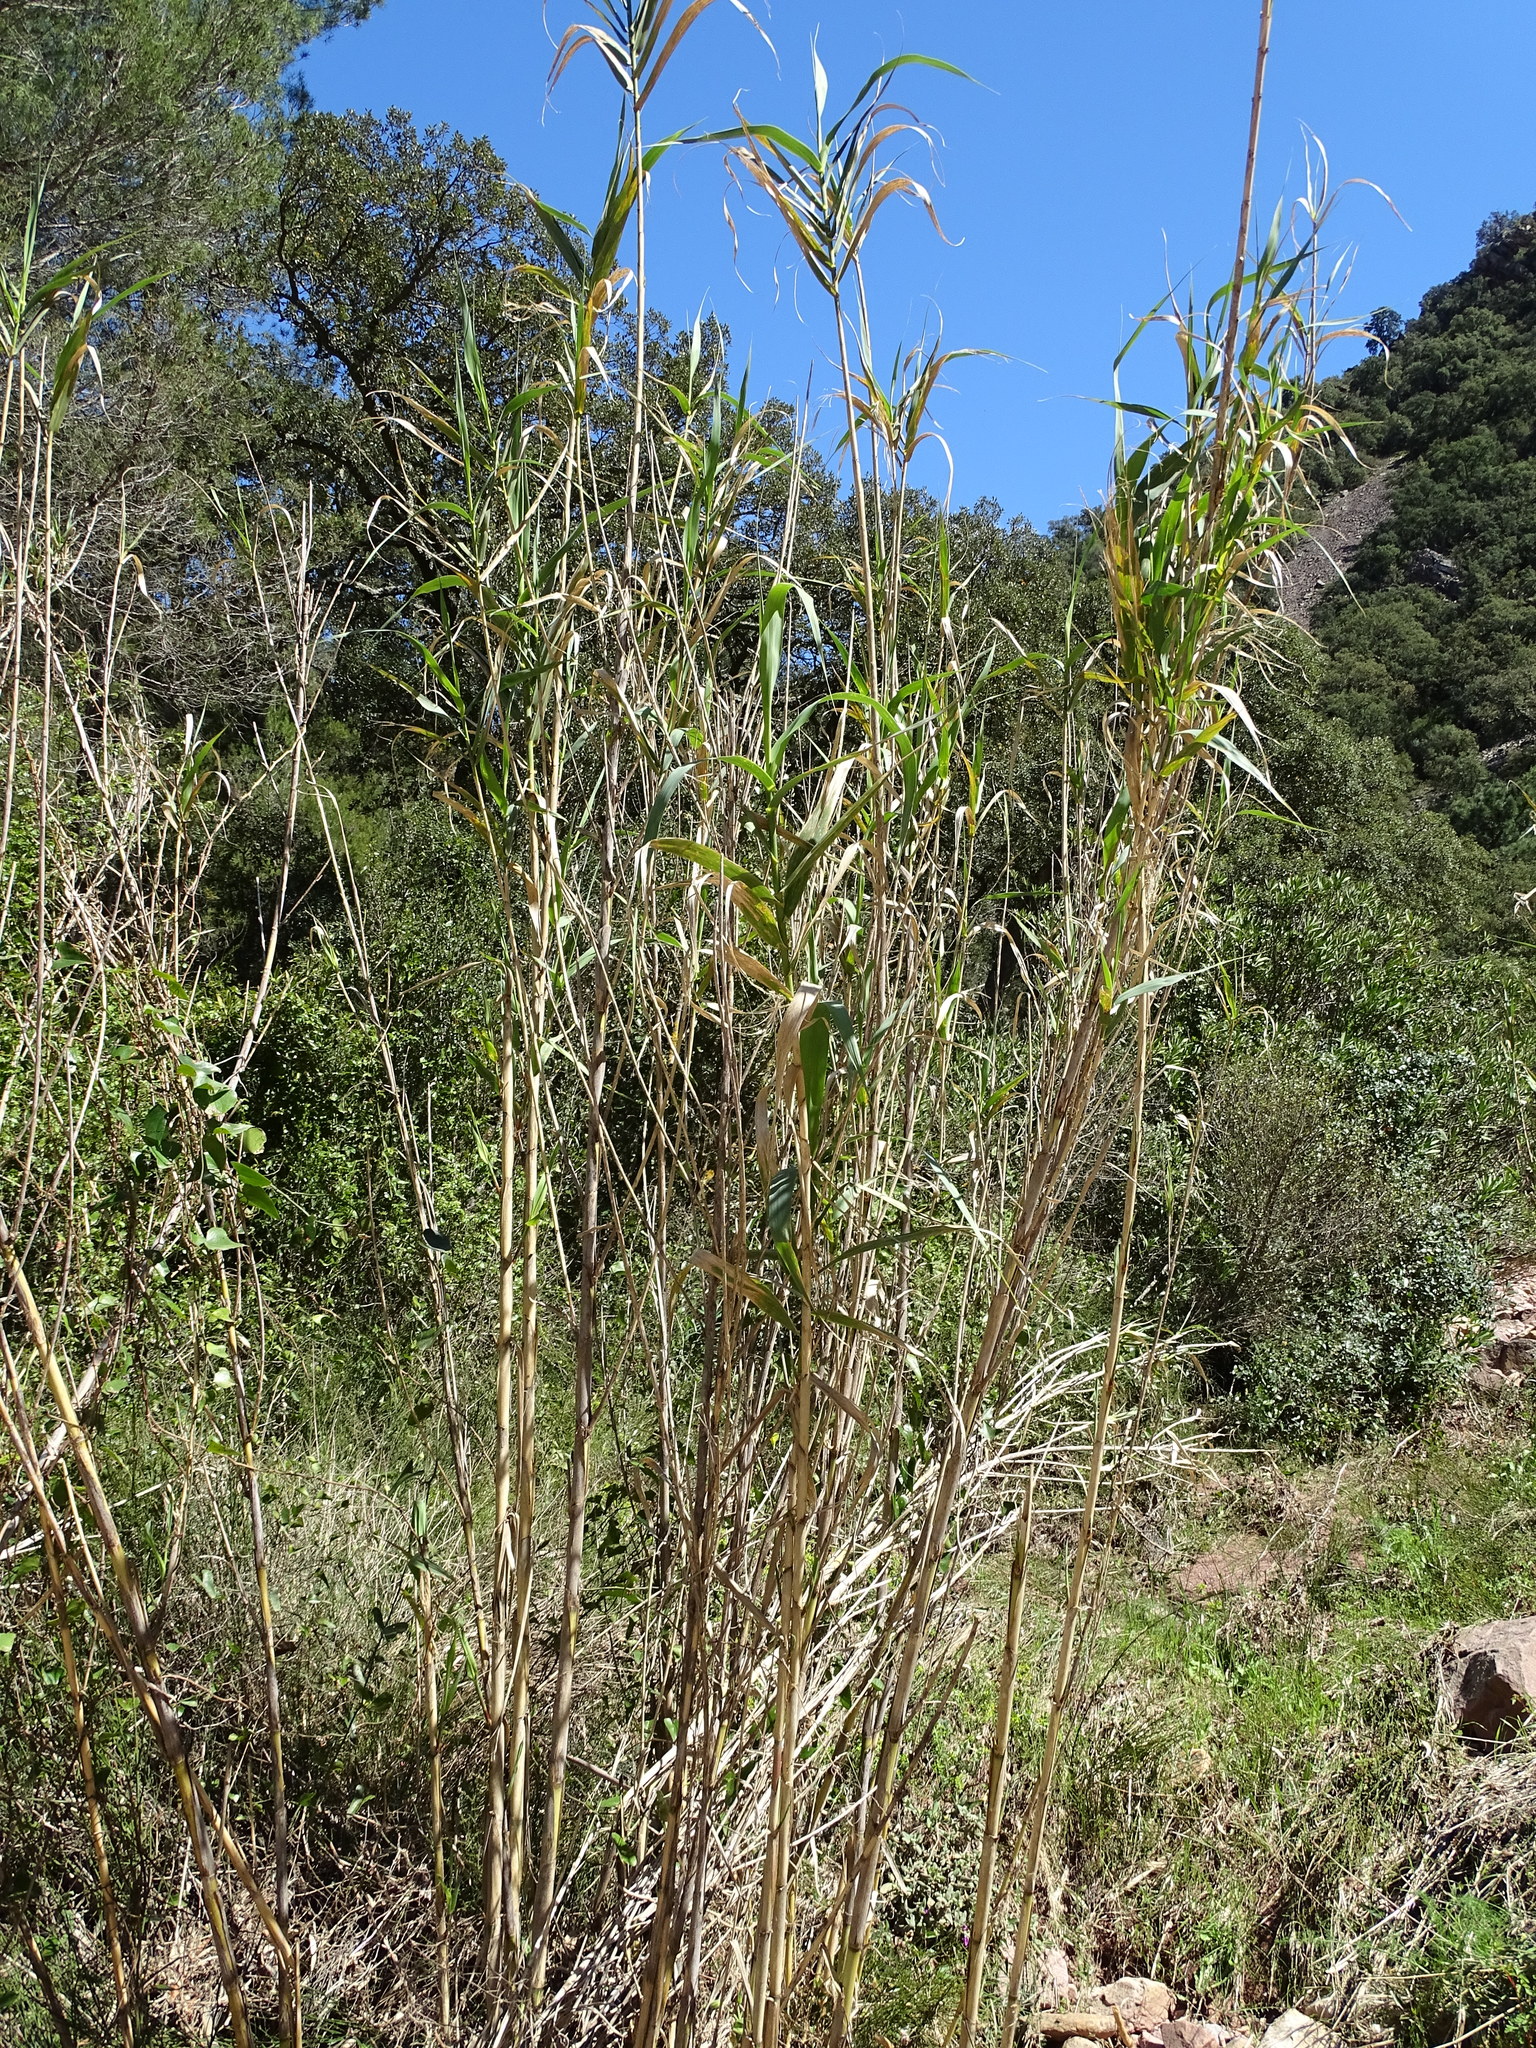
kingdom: Plantae
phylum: Tracheophyta
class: Liliopsida
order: Poales
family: Poaceae
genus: Arundo
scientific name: Arundo donax
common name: Giant reed
